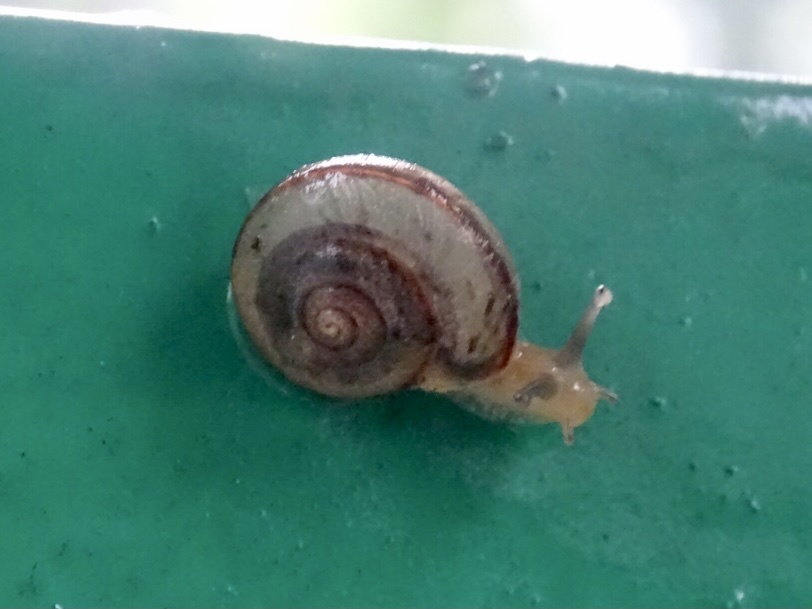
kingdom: Animalia
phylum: Mollusca
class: Gastropoda
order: Stylommatophora
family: Camaenidae
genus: Bradybaena
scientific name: Bradybaena similaris
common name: Asian trampsnail
